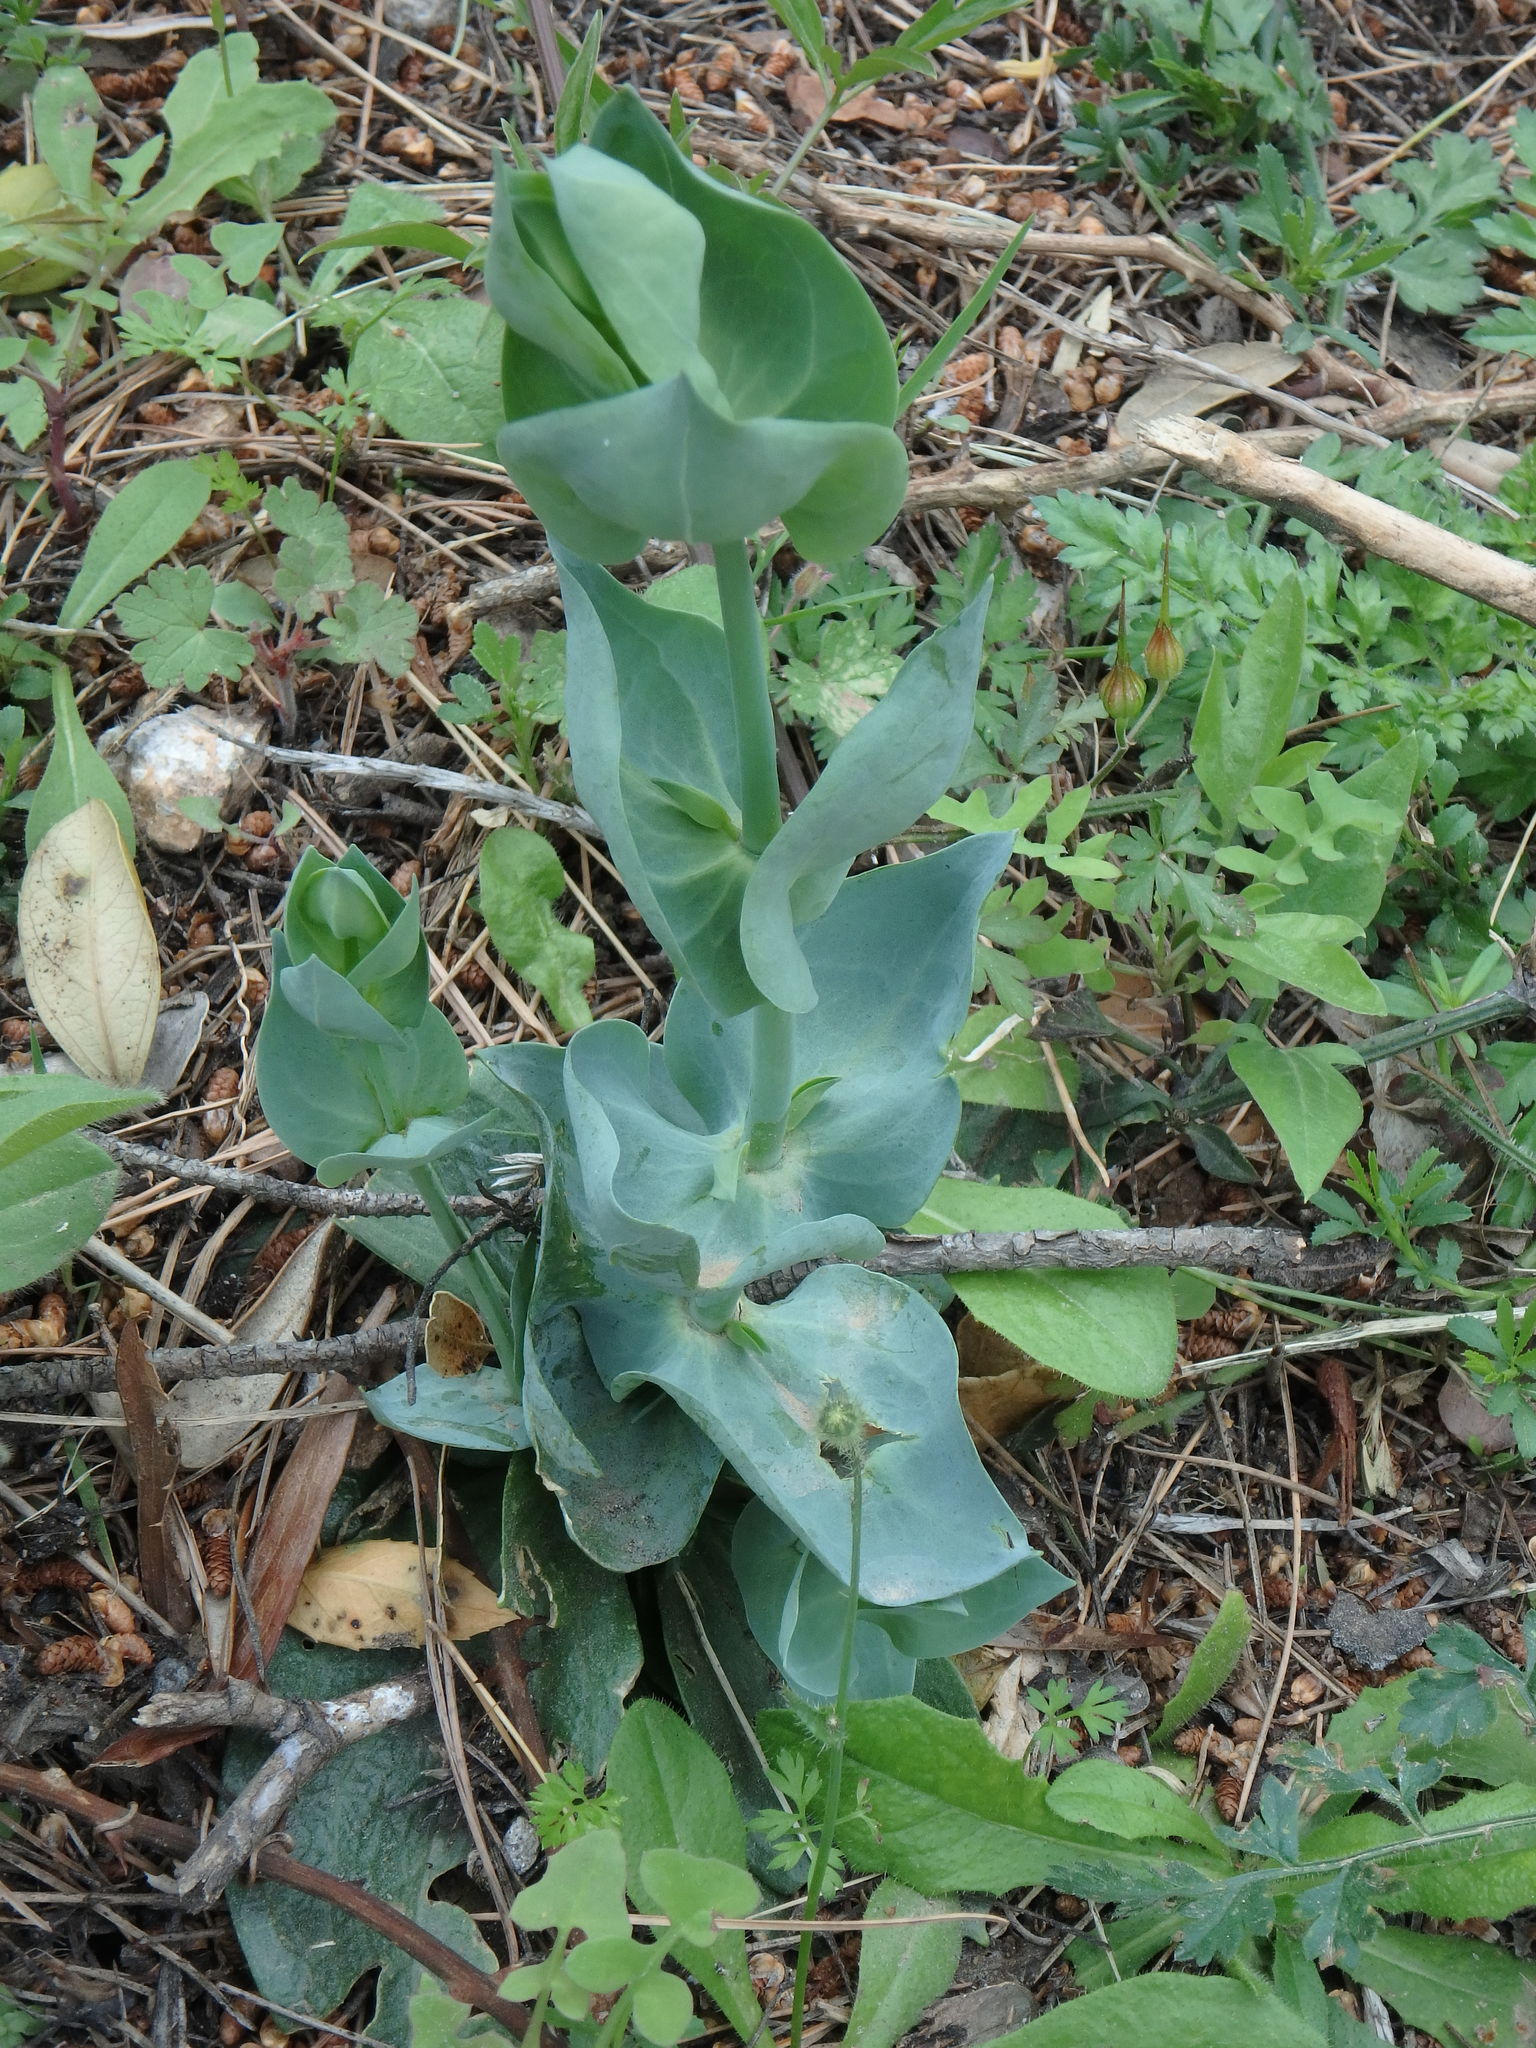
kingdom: Plantae
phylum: Tracheophyta
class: Magnoliopsida
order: Gentianales
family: Gentianaceae
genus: Blackstonia
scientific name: Blackstonia perfoliata
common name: Yellow-wort
